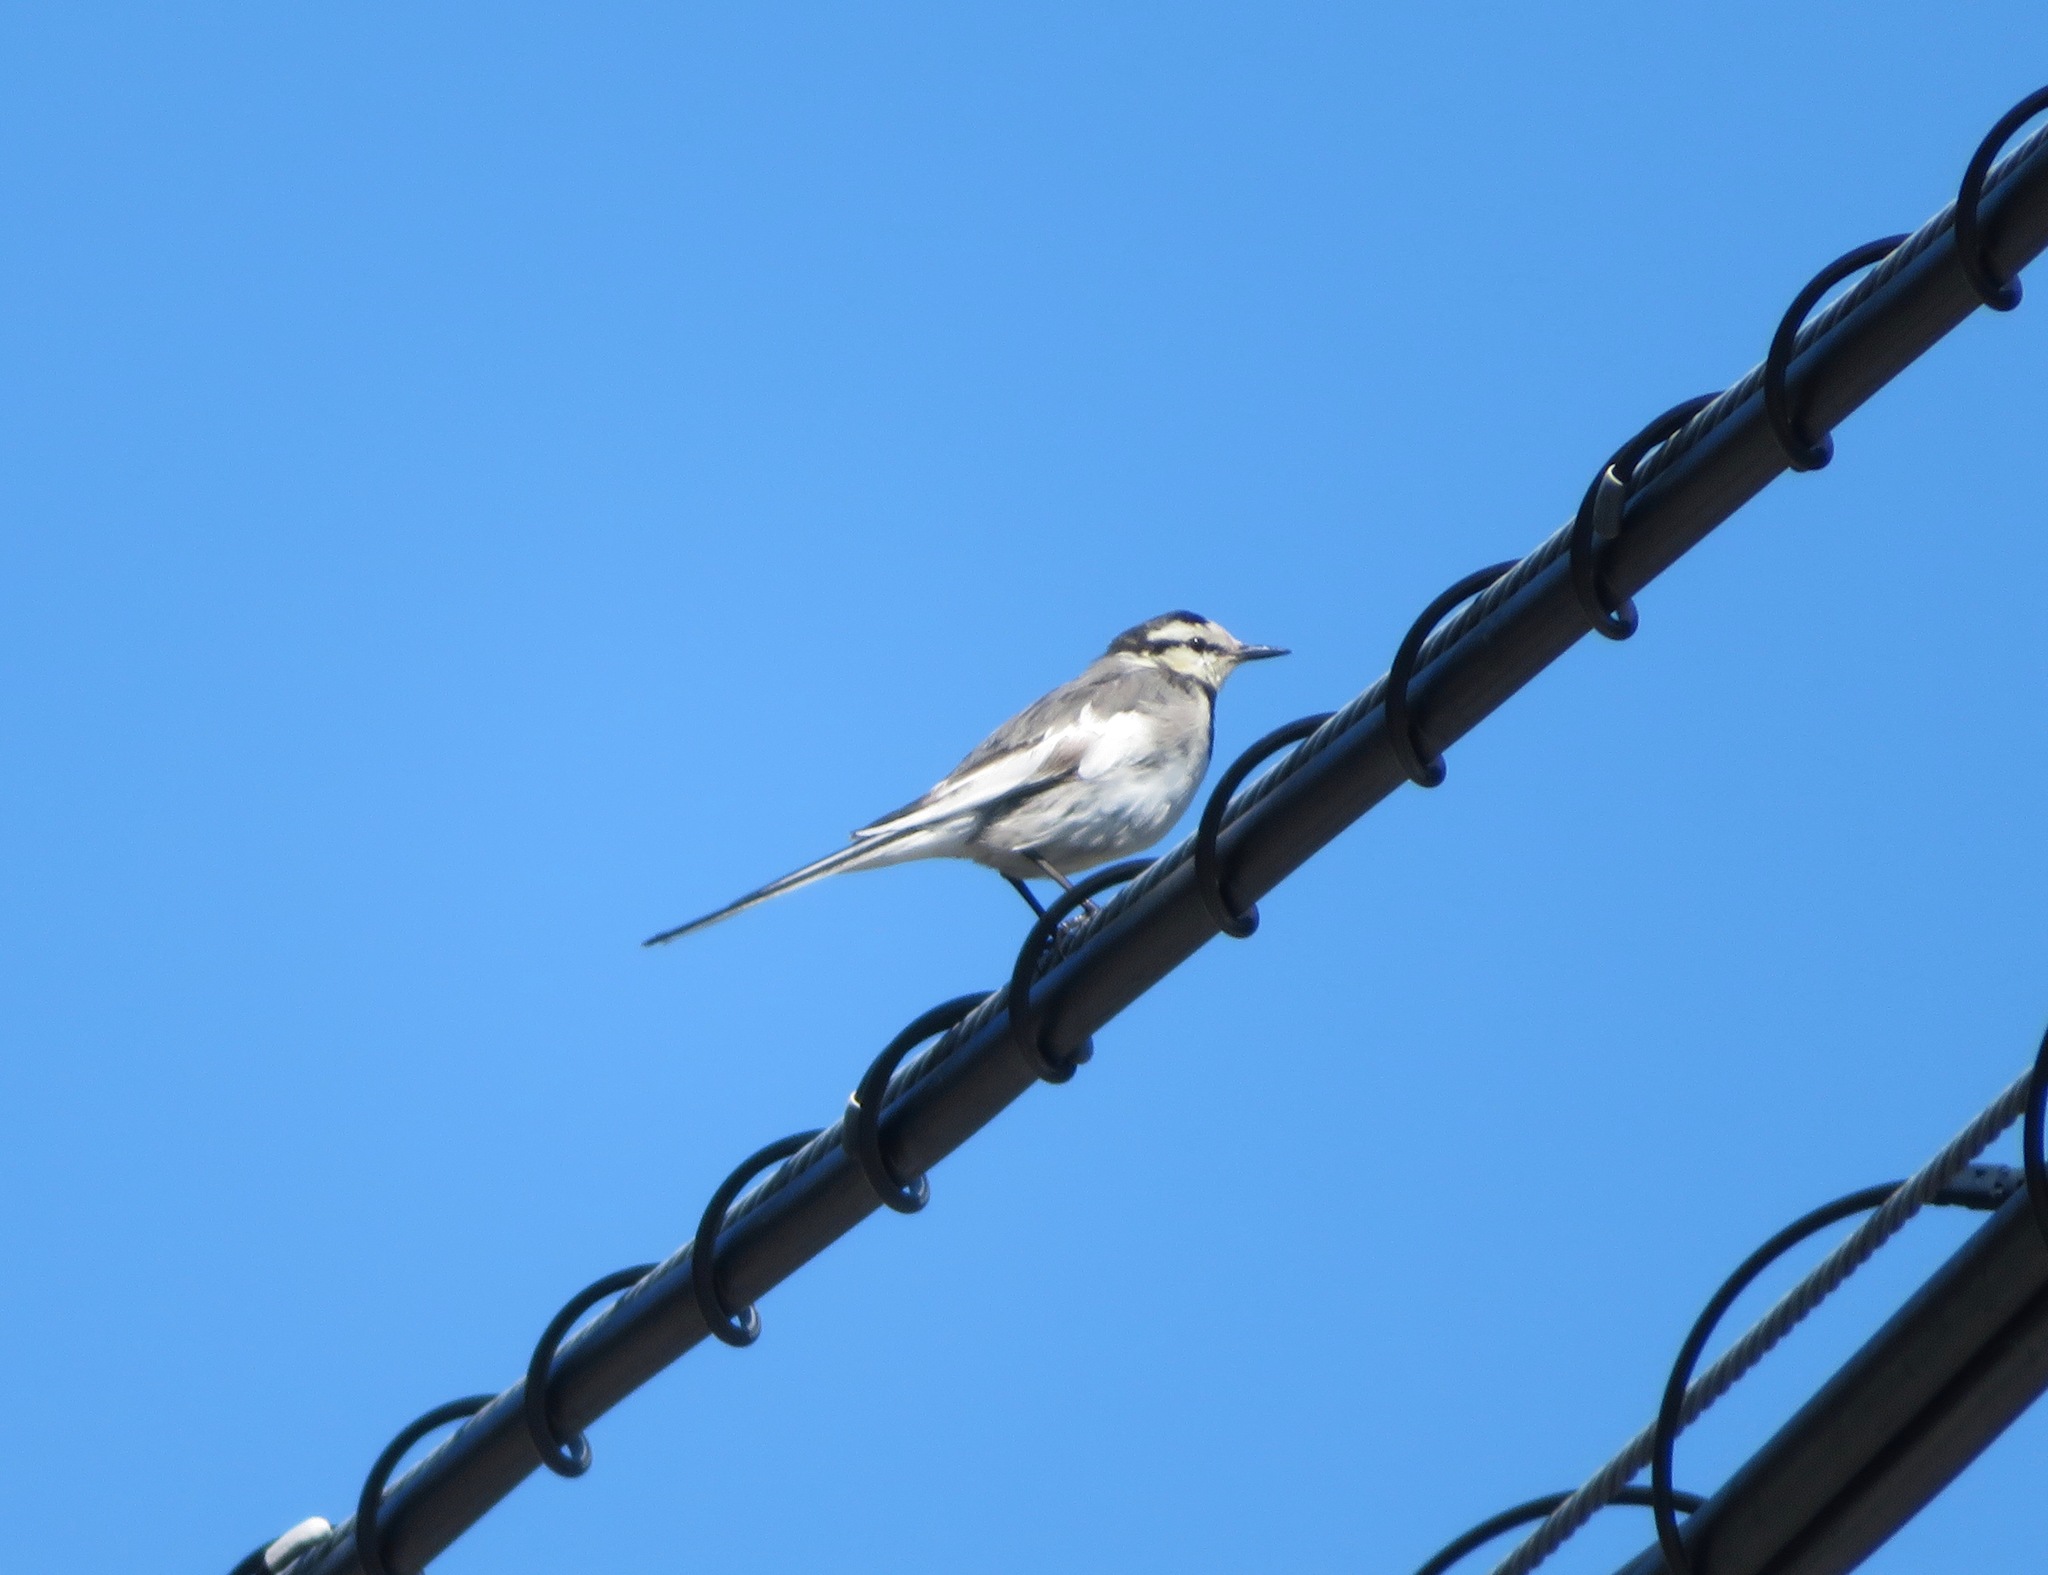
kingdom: Animalia
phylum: Chordata
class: Aves
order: Passeriformes
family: Motacillidae
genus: Motacilla
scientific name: Motacilla alba
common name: White wagtail
